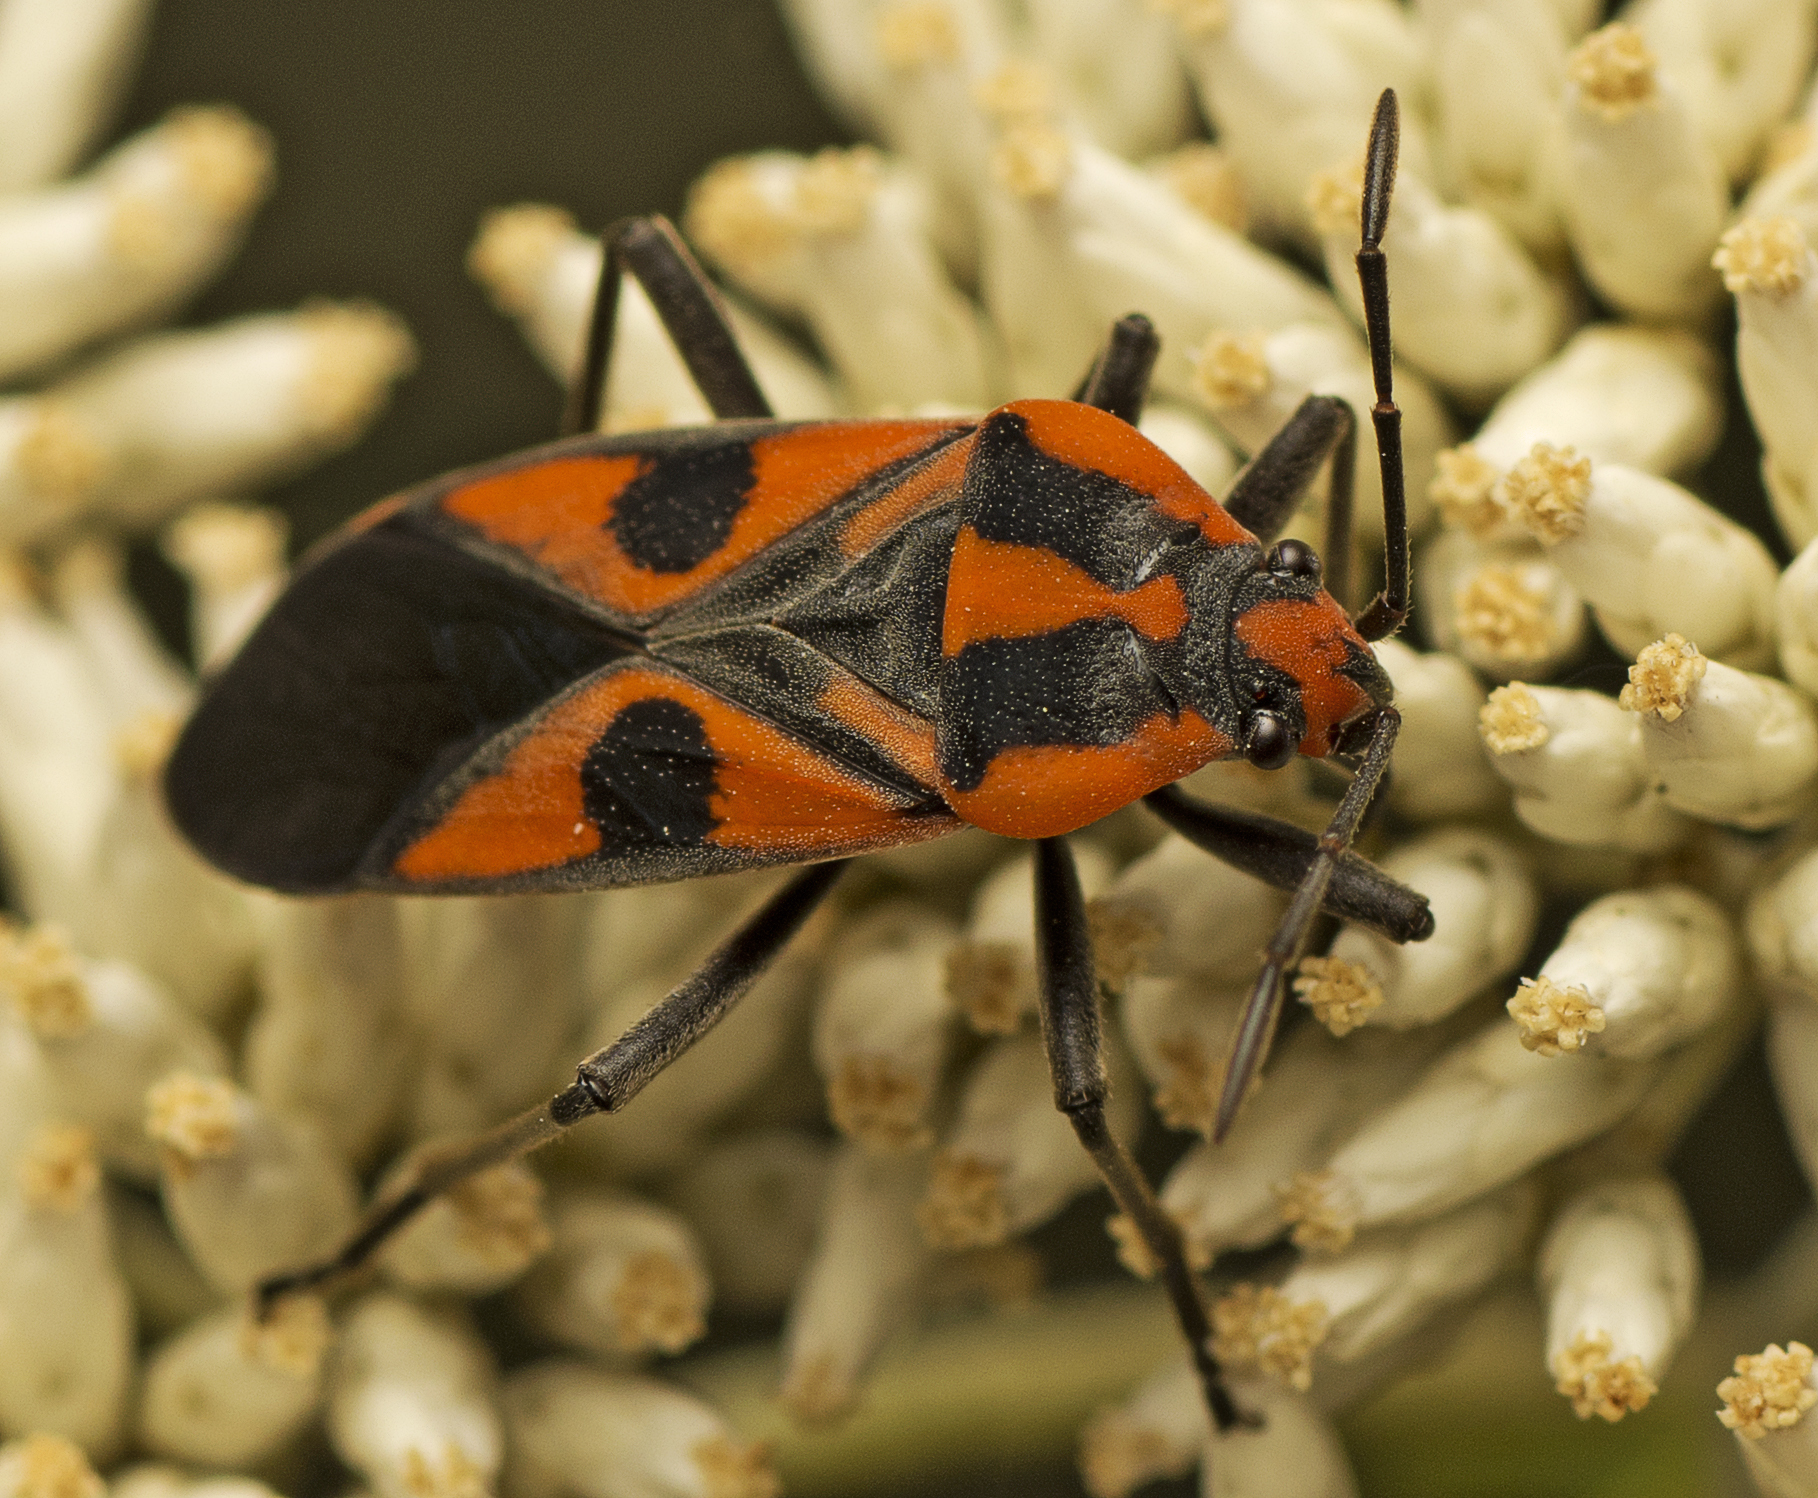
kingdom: Animalia
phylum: Arthropoda
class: Insecta
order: Hemiptera
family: Lygaeidae
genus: Spilostethus
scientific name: Spilostethus pacificus
